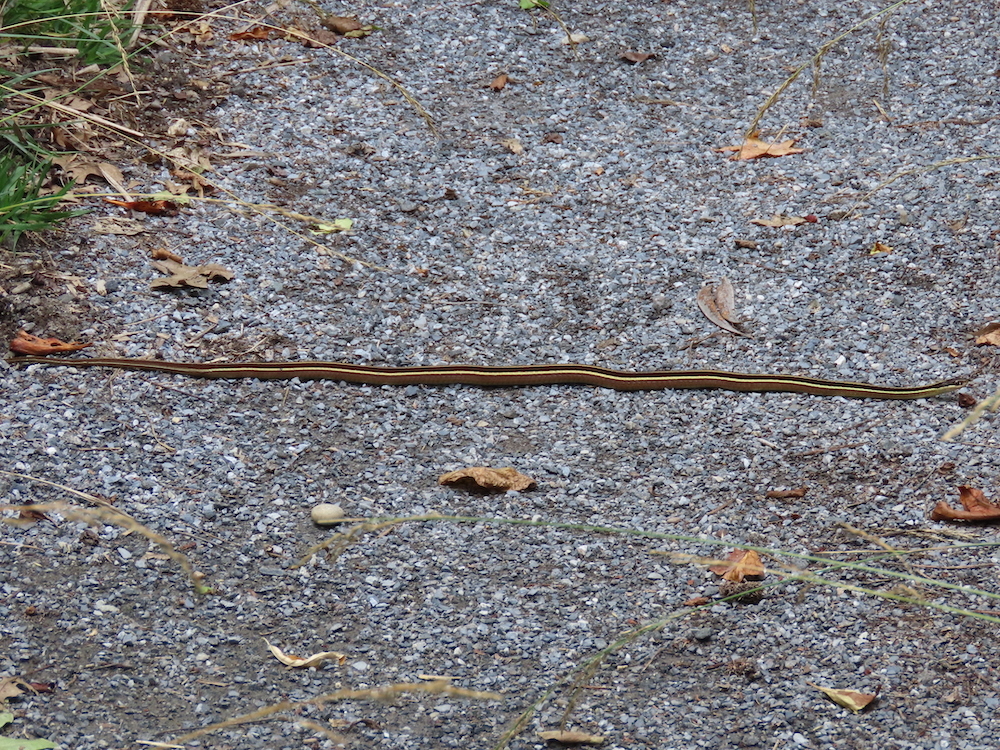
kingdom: Animalia
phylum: Chordata
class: Squamata
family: Colubridae
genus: Thamnophis
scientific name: Thamnophis saurita
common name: Eastern ribbonsnake
